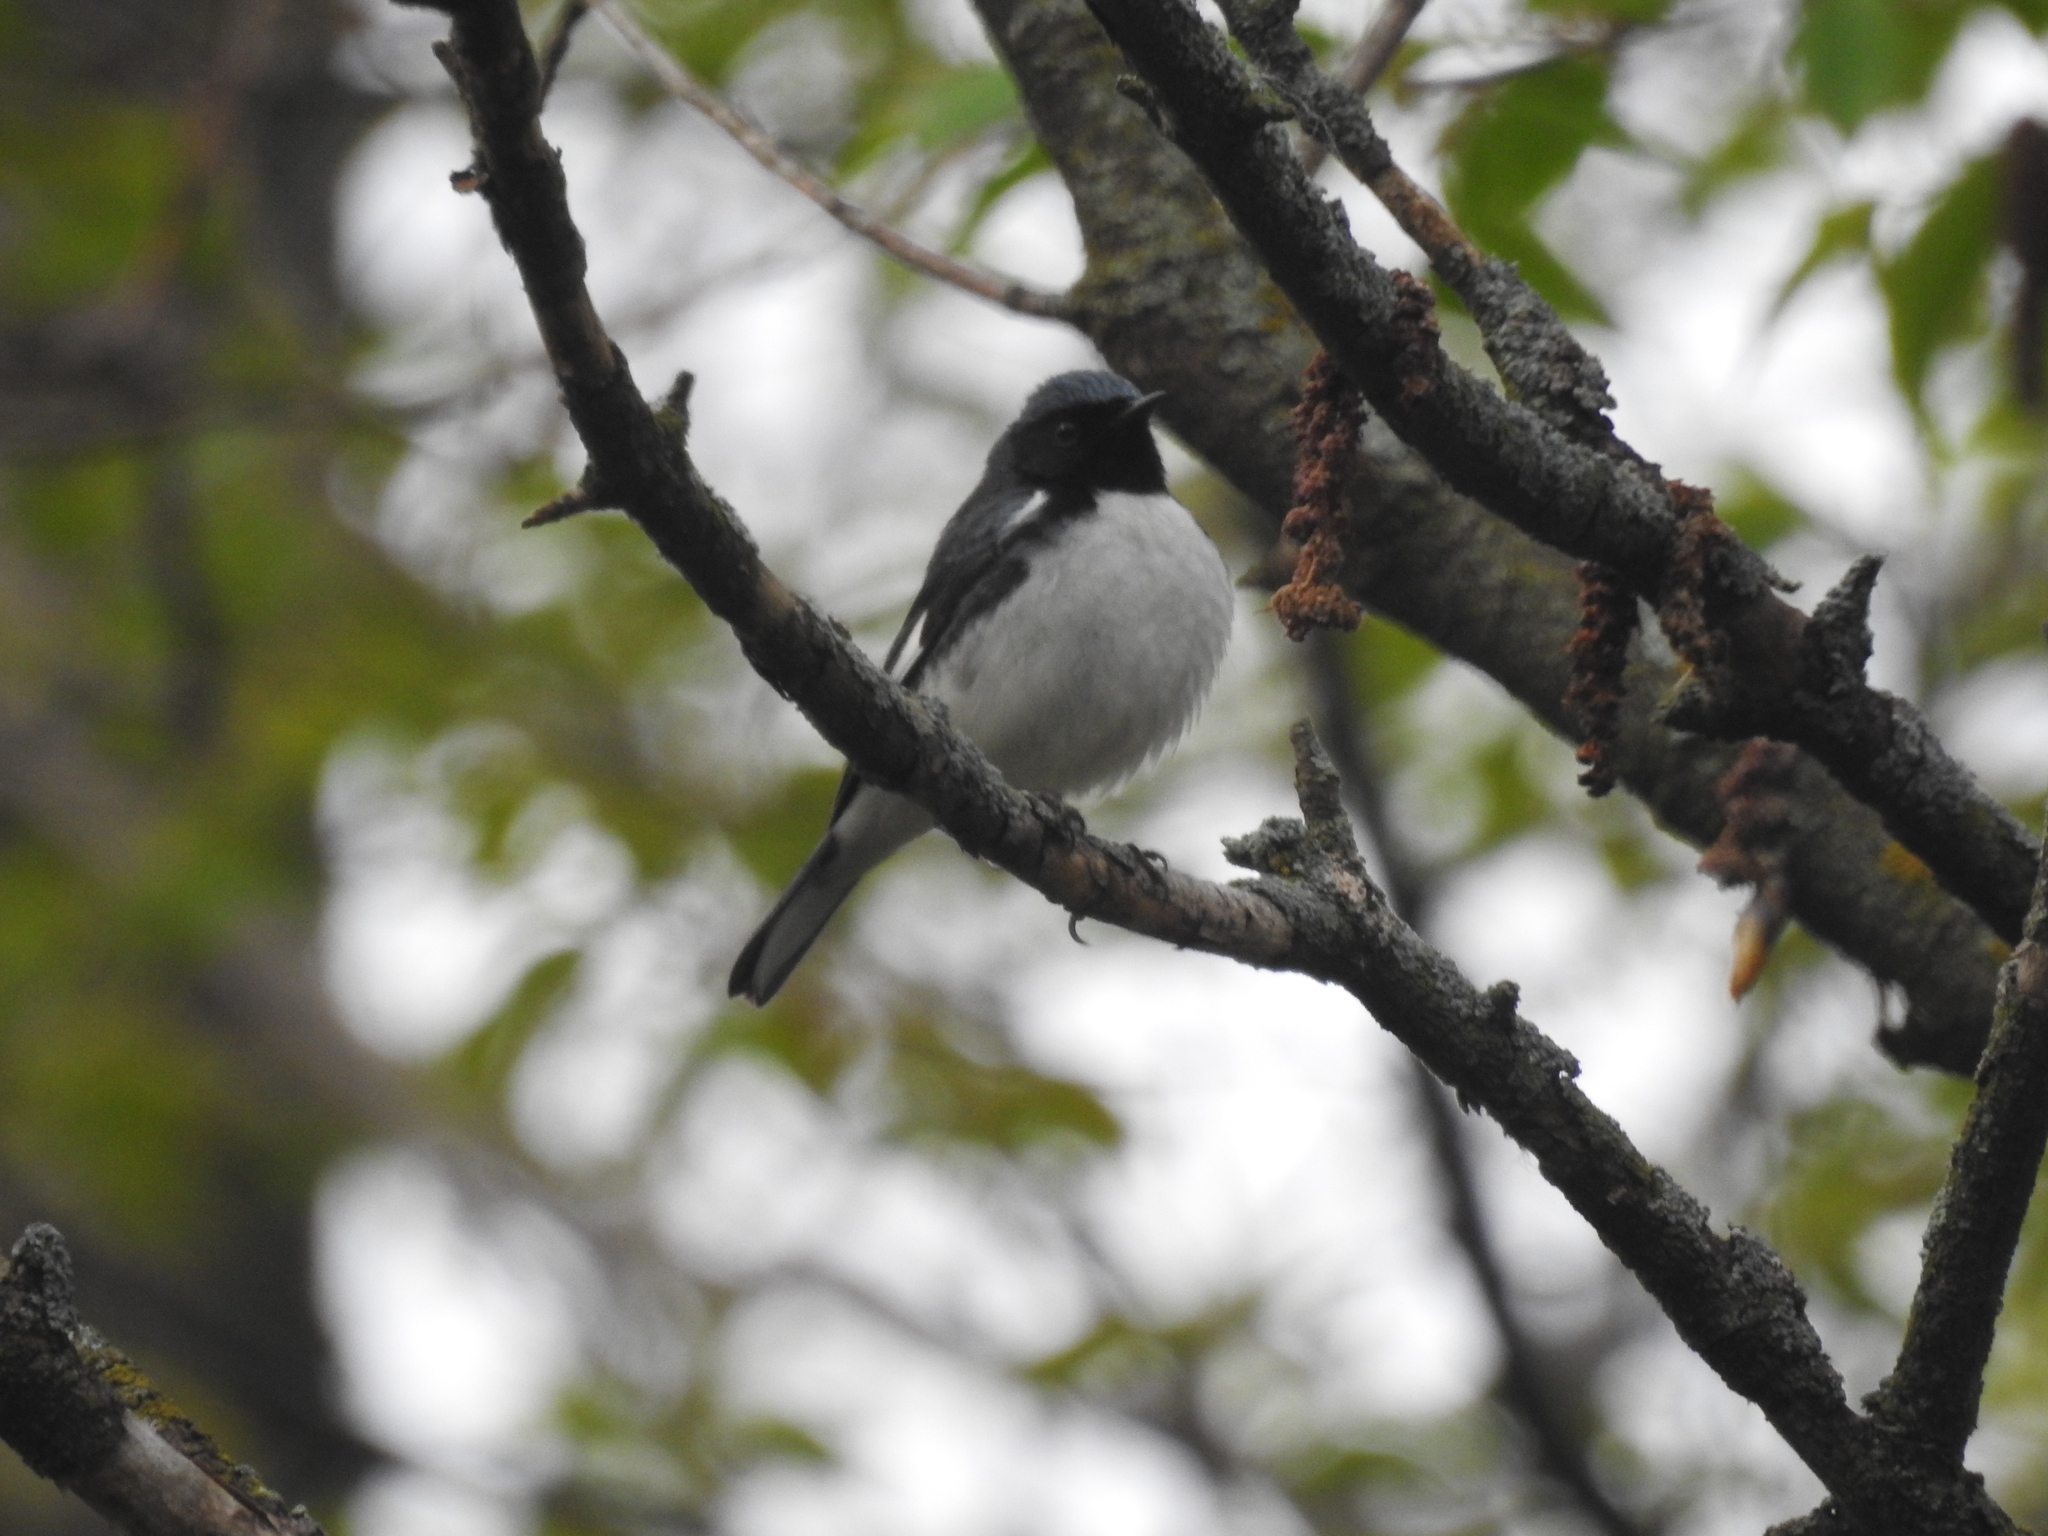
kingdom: Animalia
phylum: Chordata
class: Aves
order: Passeriformes
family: Parulidae
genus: Setophaga
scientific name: Setophaga caerulescens
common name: Black-throated blue warbler
